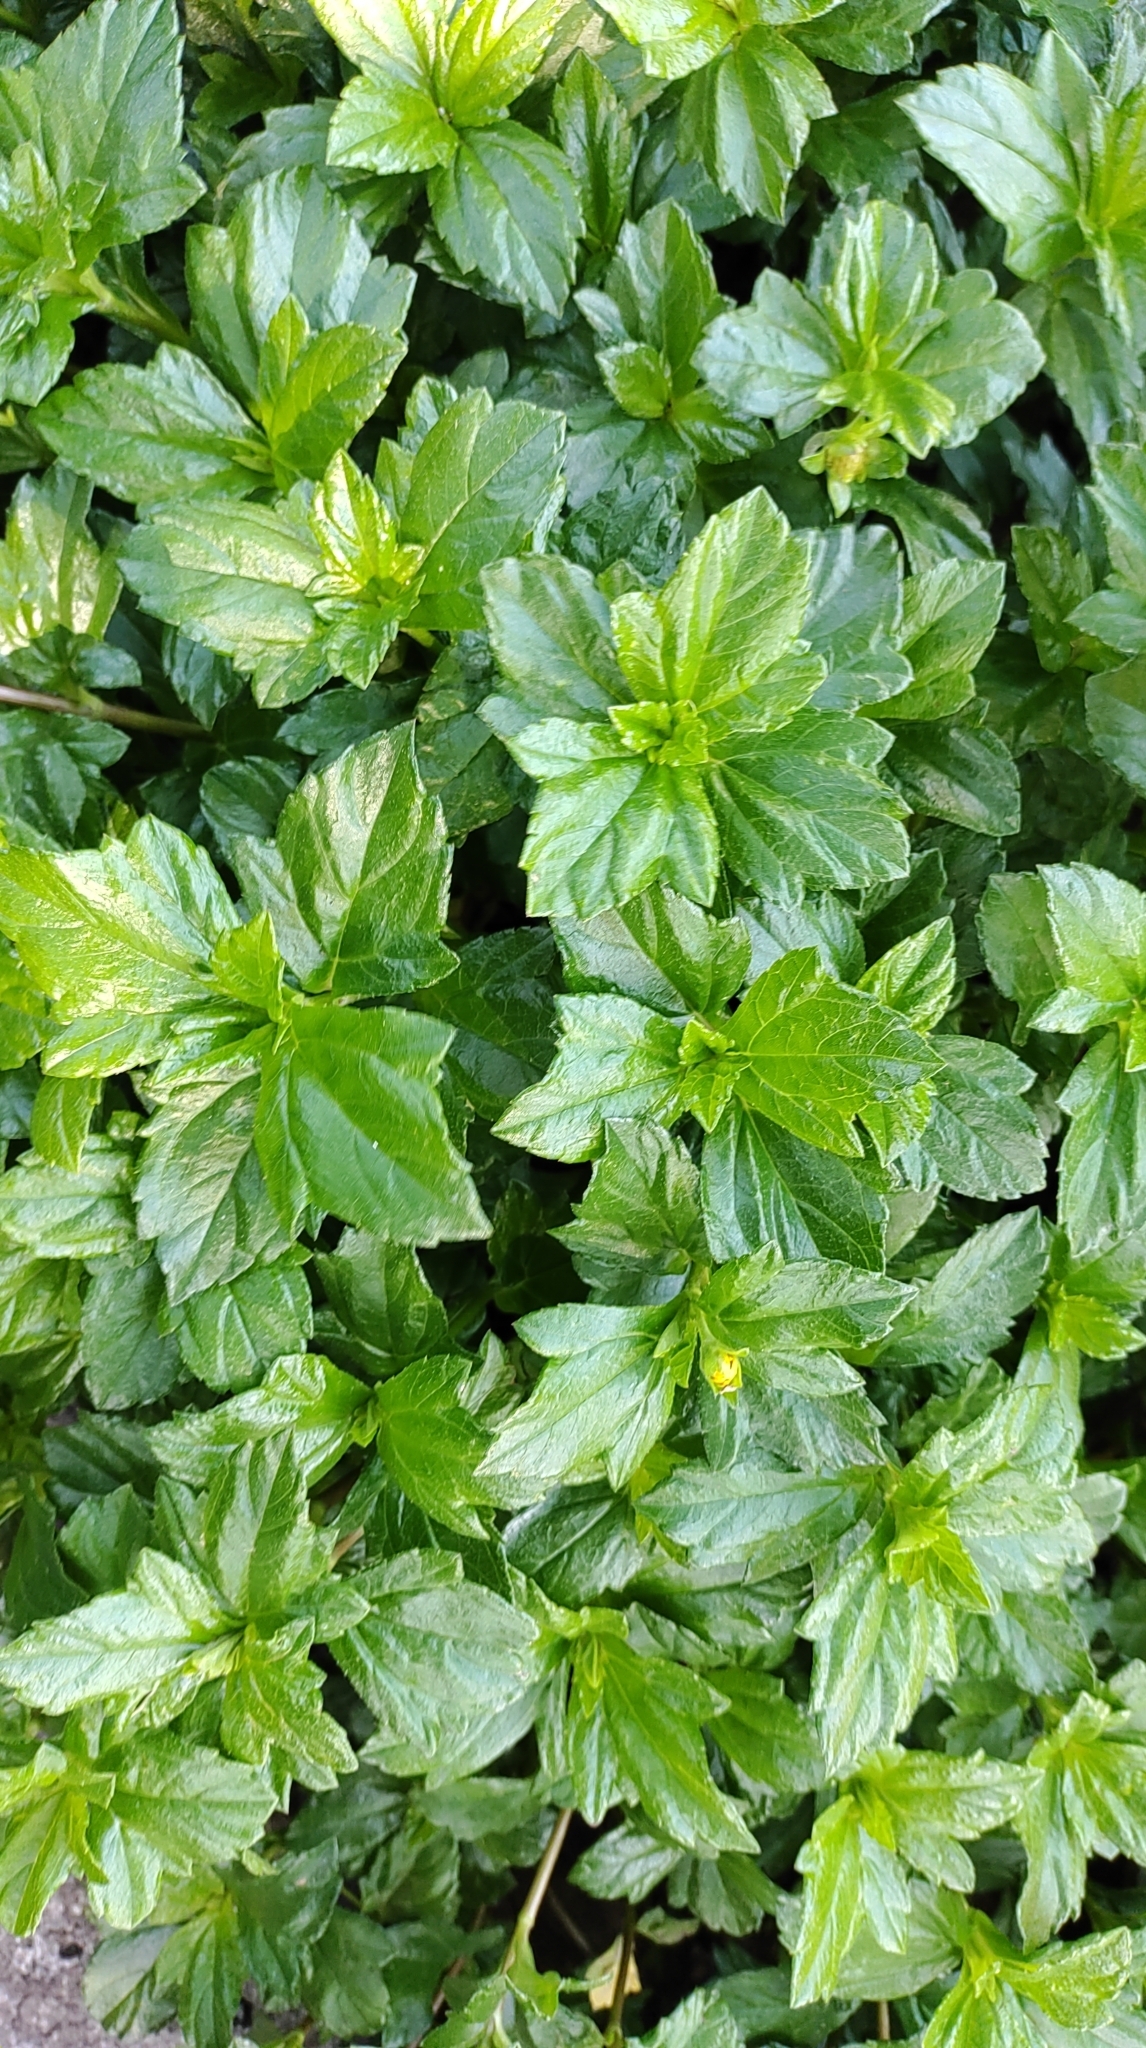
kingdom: Plantae
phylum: Tracheophyta
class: Magnoliopsida
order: Asterales
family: Asteraceae
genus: Sphagneticola
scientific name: Sphagneticola trilobata
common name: Bay biscayne creeping-oxeye
